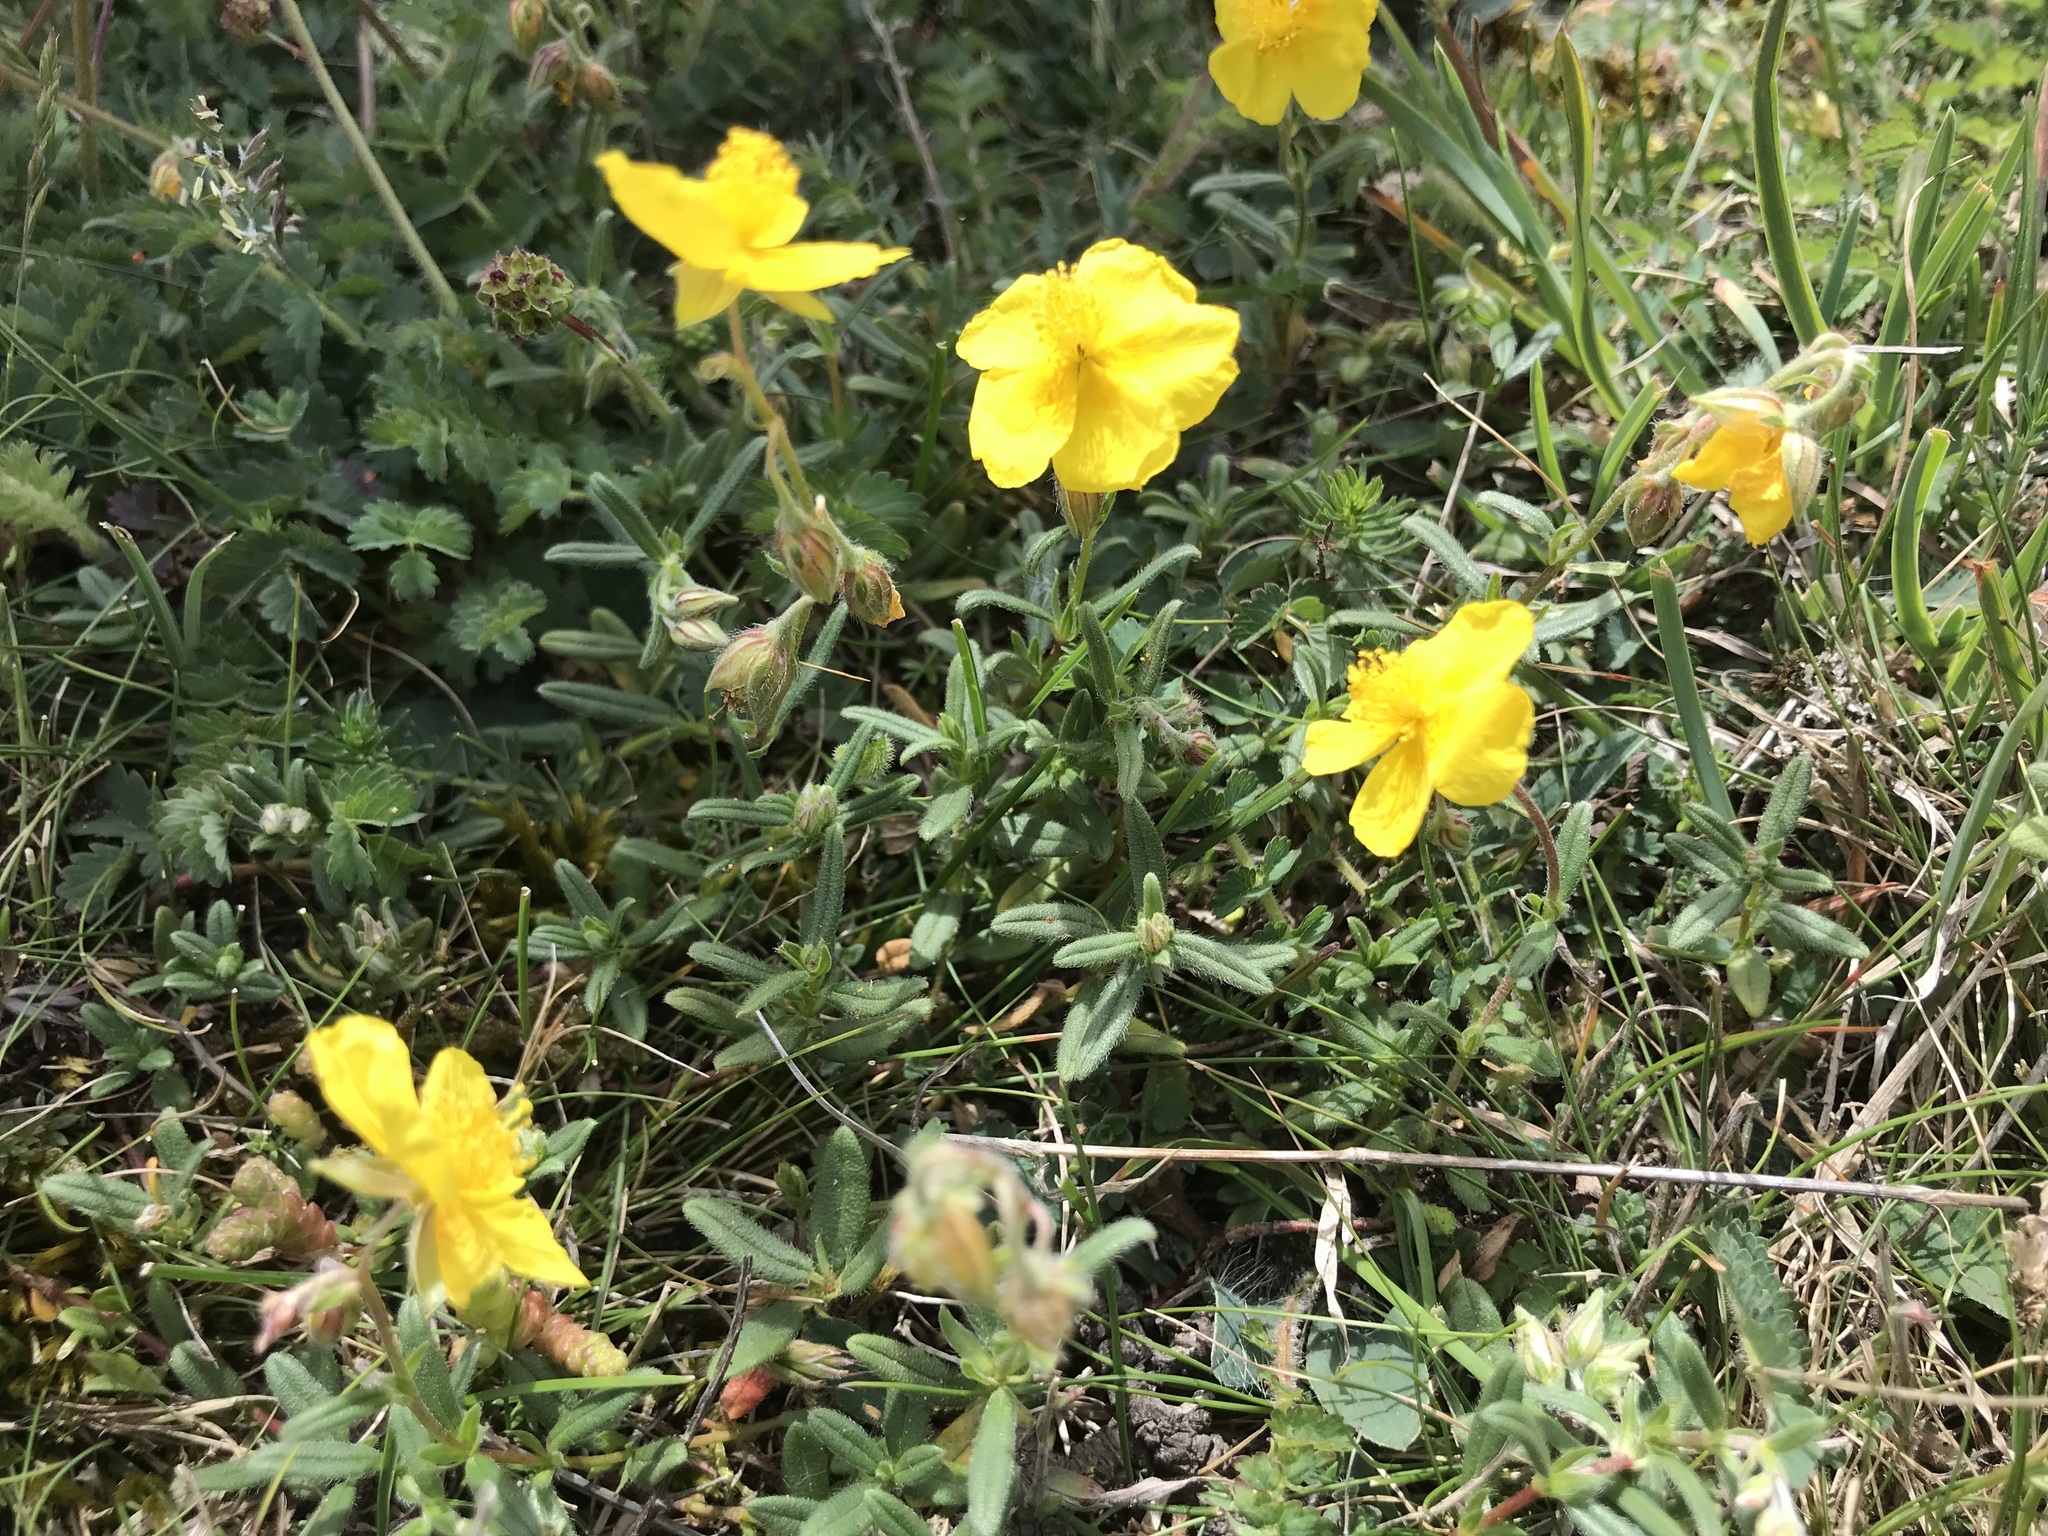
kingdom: Plantae
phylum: Tracheophyta
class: Magnoliopsida
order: Malvales
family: Cistaceae
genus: Helianthemum
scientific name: Helianthemum nummularium
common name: Common rock-rose
